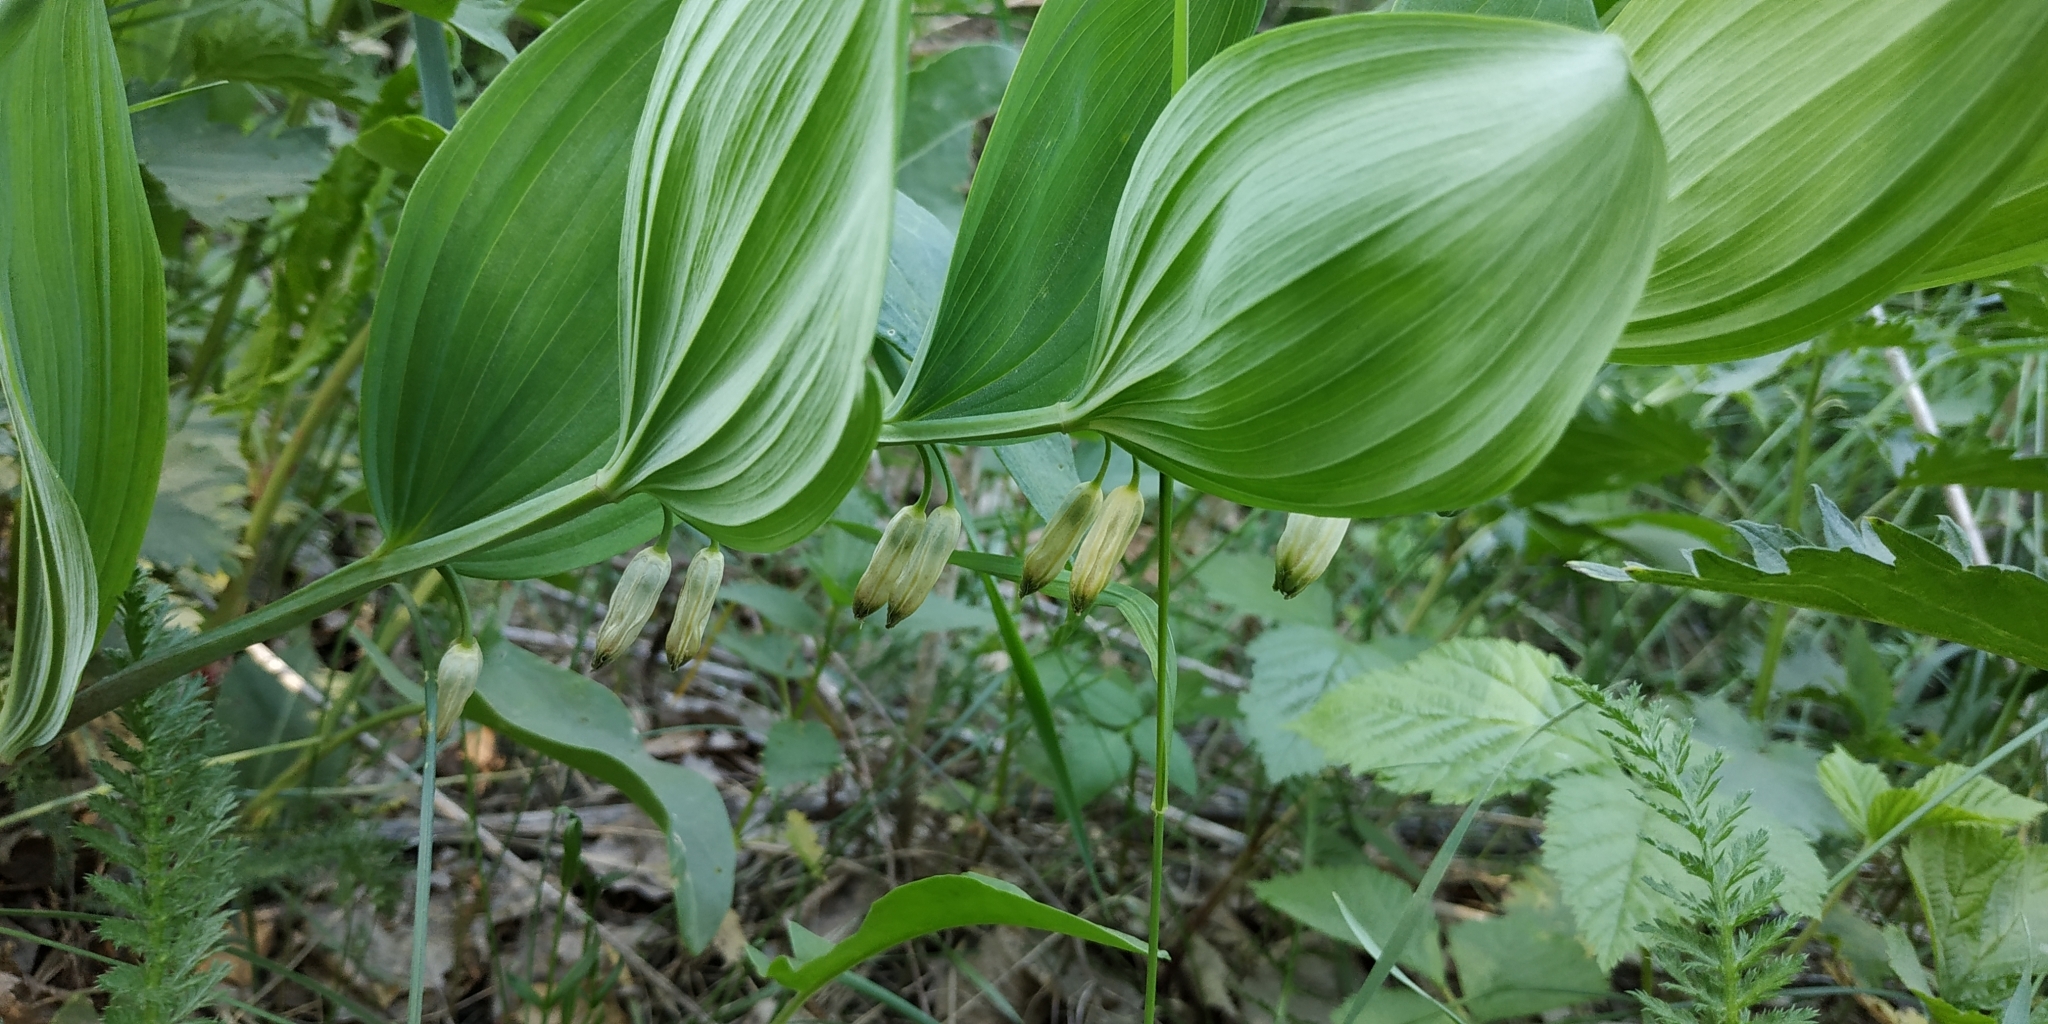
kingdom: Plantae
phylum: Tracheophyta
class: Liliopsida
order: Asparagales
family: Asparagaceae
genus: Polygonatum
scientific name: Polygonatum odoratum
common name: Angular solomon's-seal
